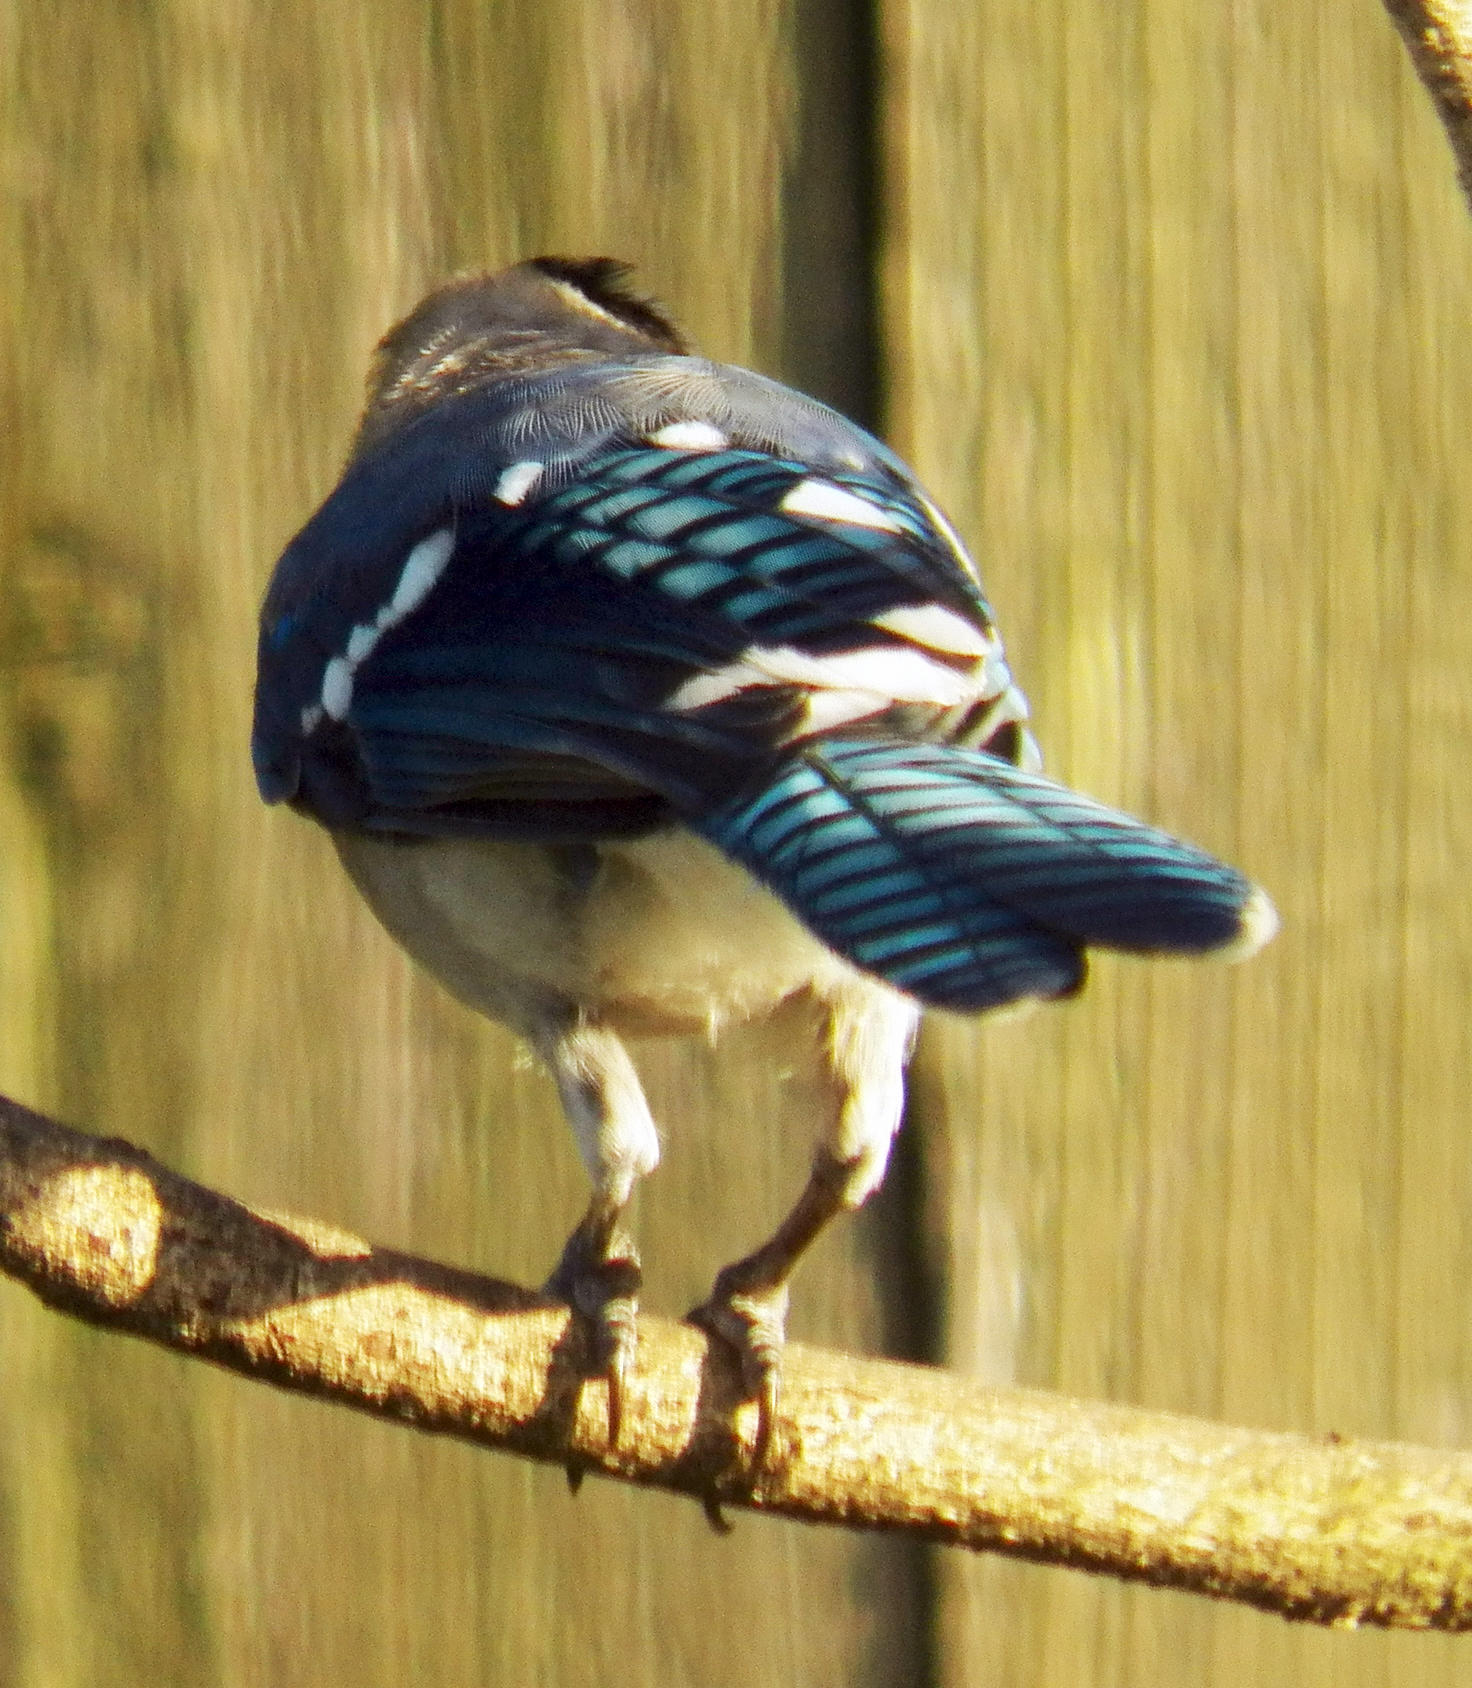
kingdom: Animalia
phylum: Chordata
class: Aves
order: Passeriformes
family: Corvidae
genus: Cyanocitta
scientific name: Cyanocitta cristata
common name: Blue jay
